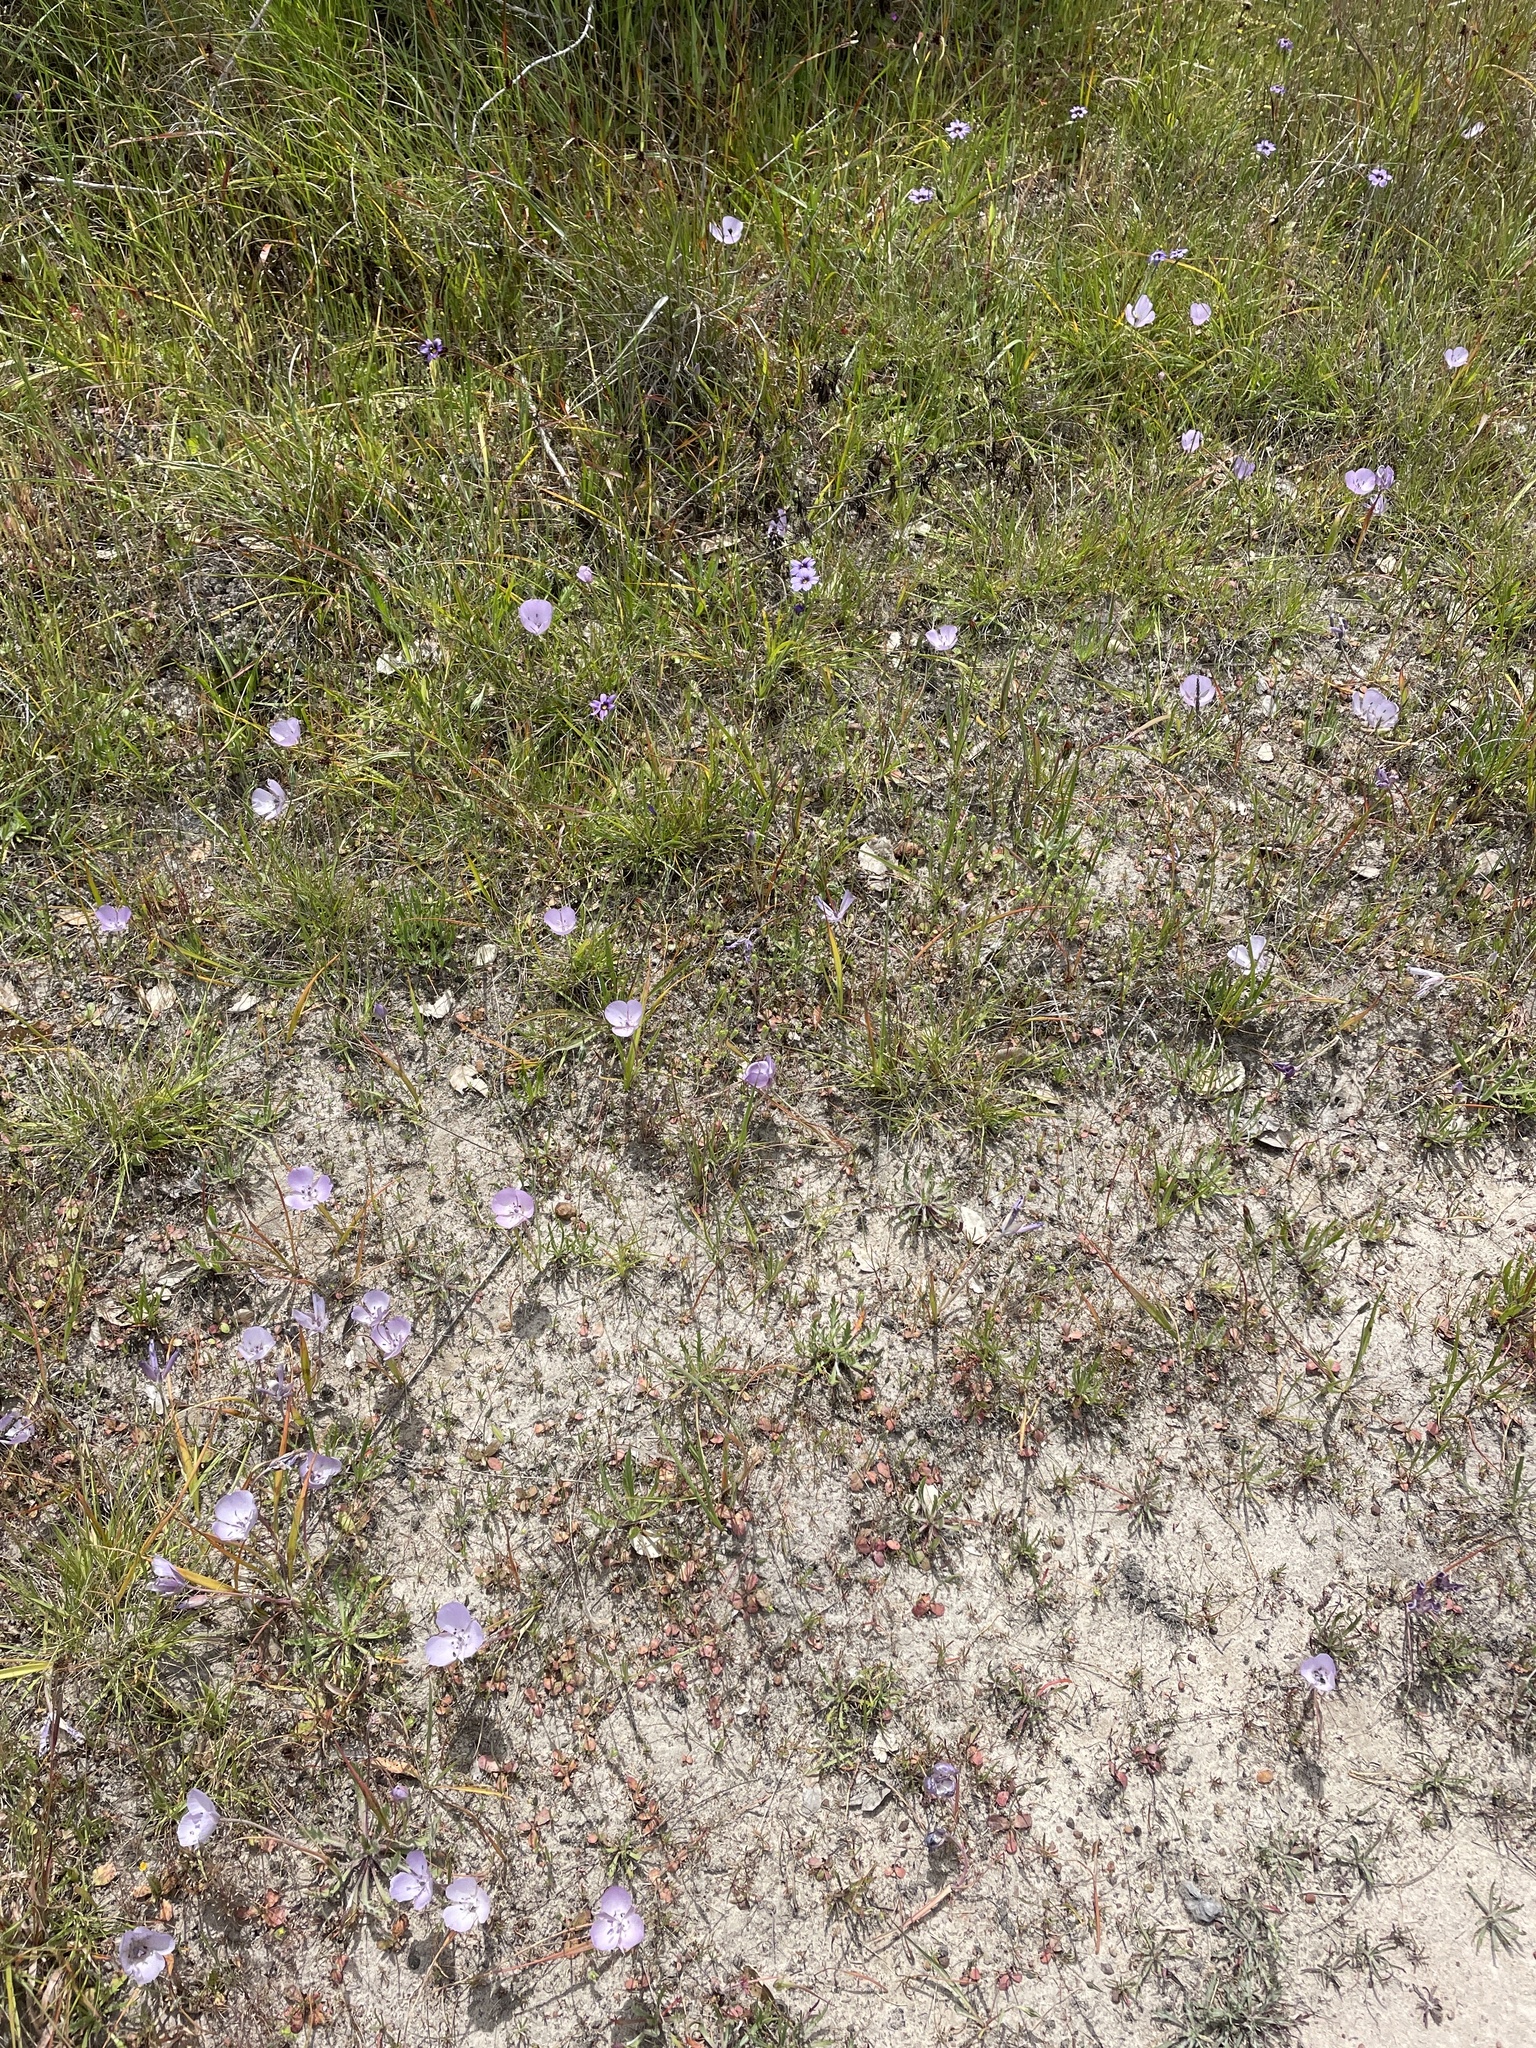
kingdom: Plantae
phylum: Tracheophyta
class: Liliopsida
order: Liliales
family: Liliaceae
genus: Calochortus
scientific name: Calochortus uniflorus
